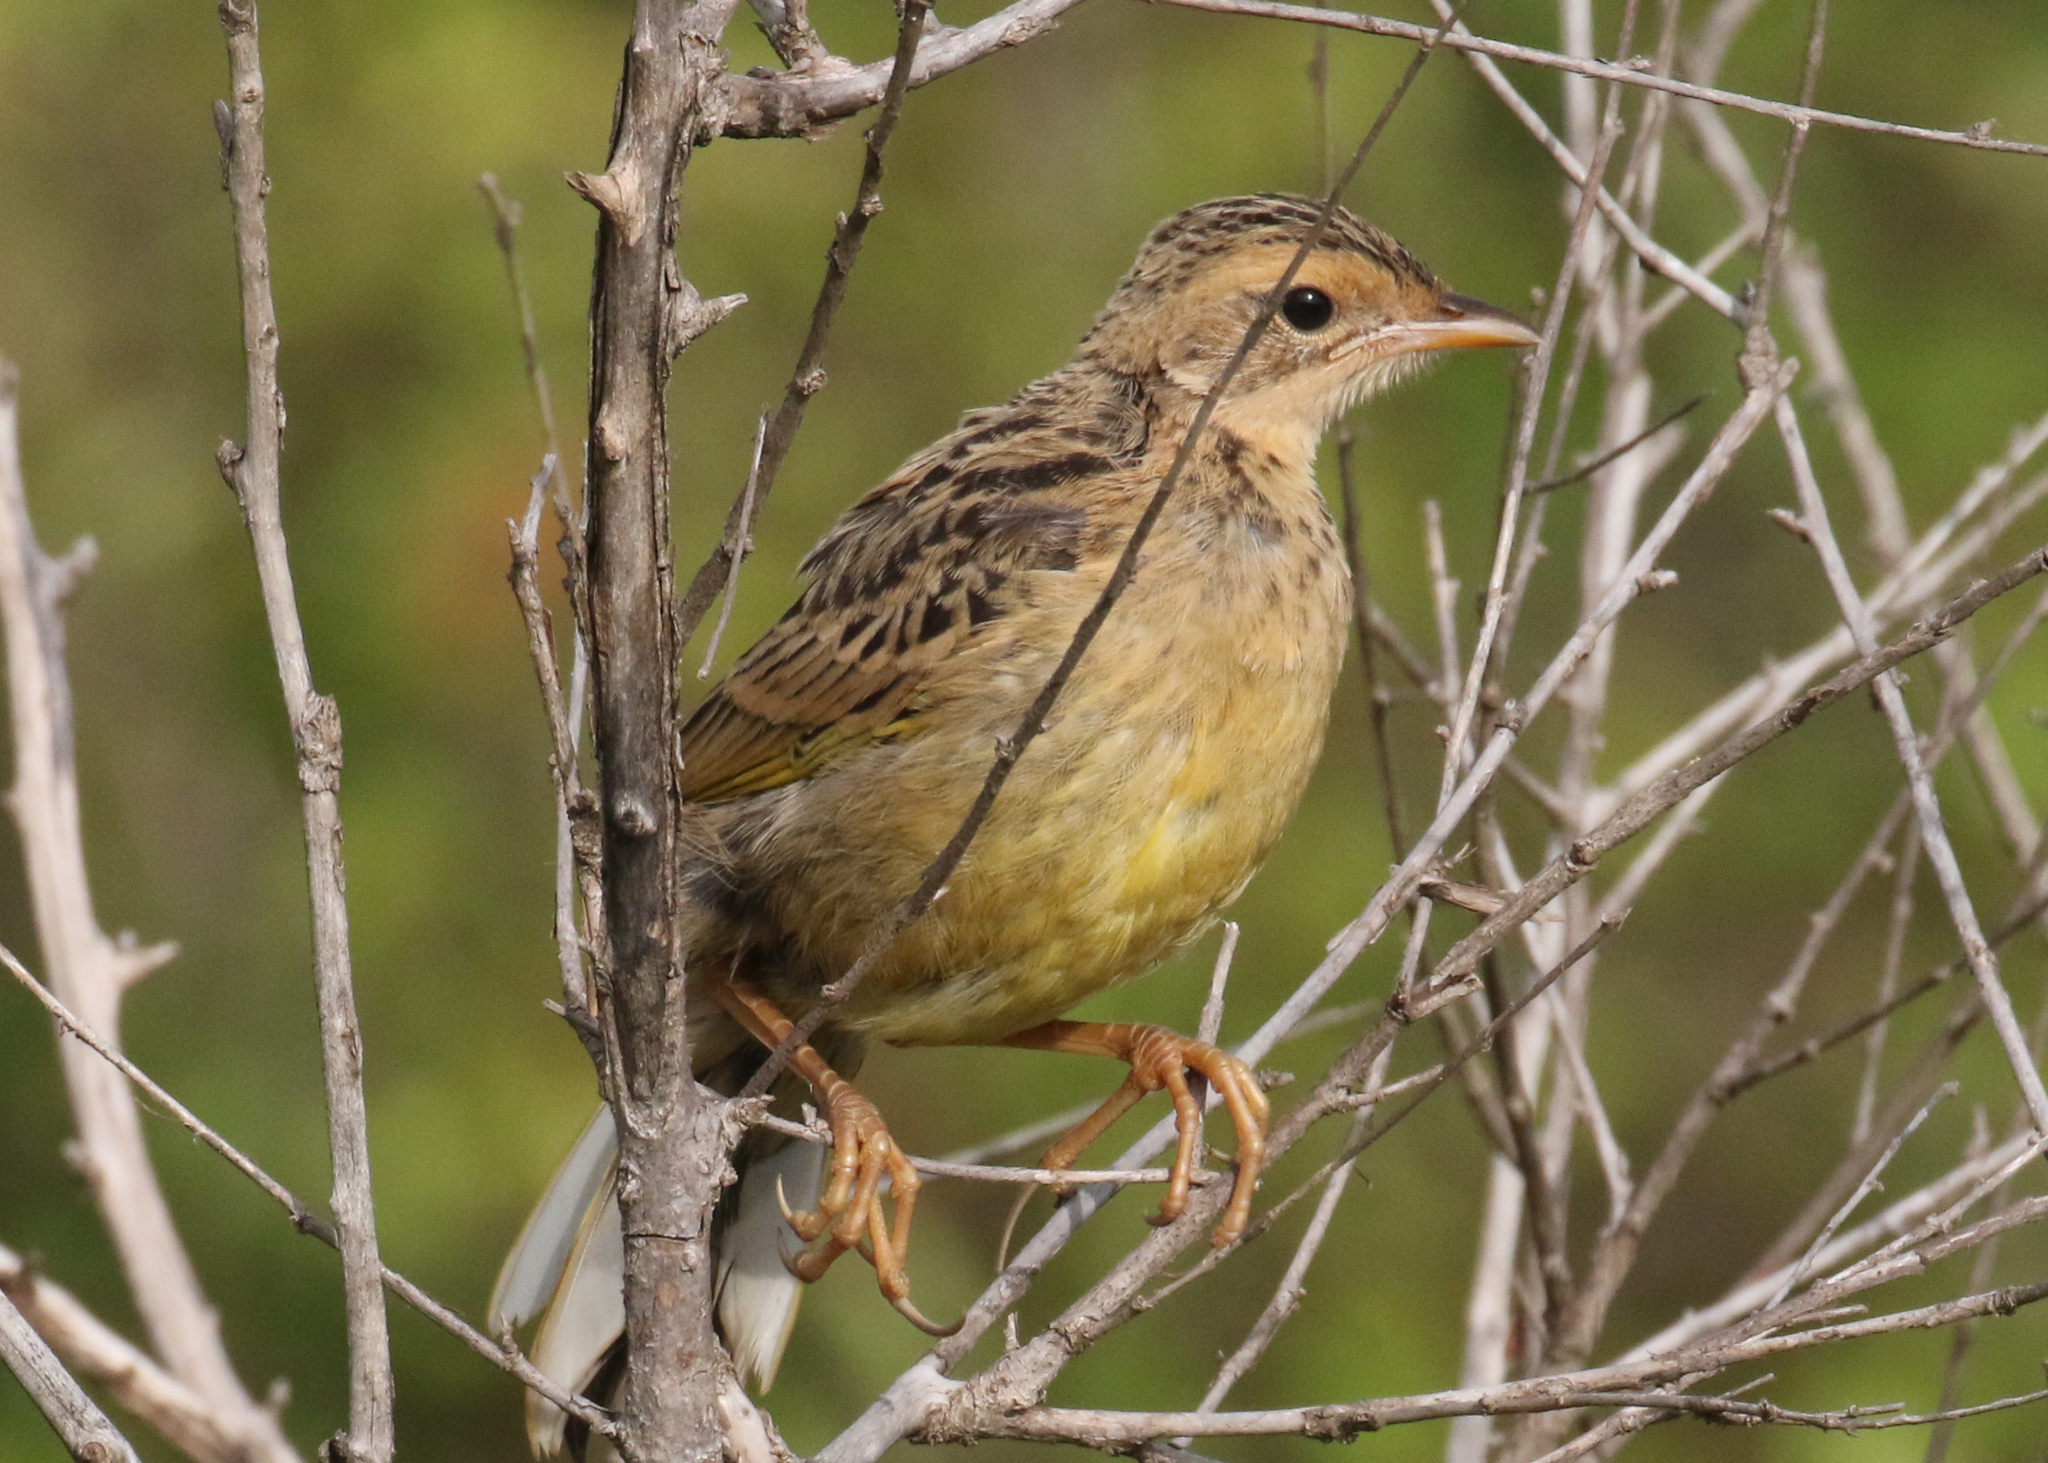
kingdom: Animalia
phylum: Chordata
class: Aves
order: Passeriformes
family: Motacillidae
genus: Macronyx
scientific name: Macronyx croceus
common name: Yellow-throated longclaw
